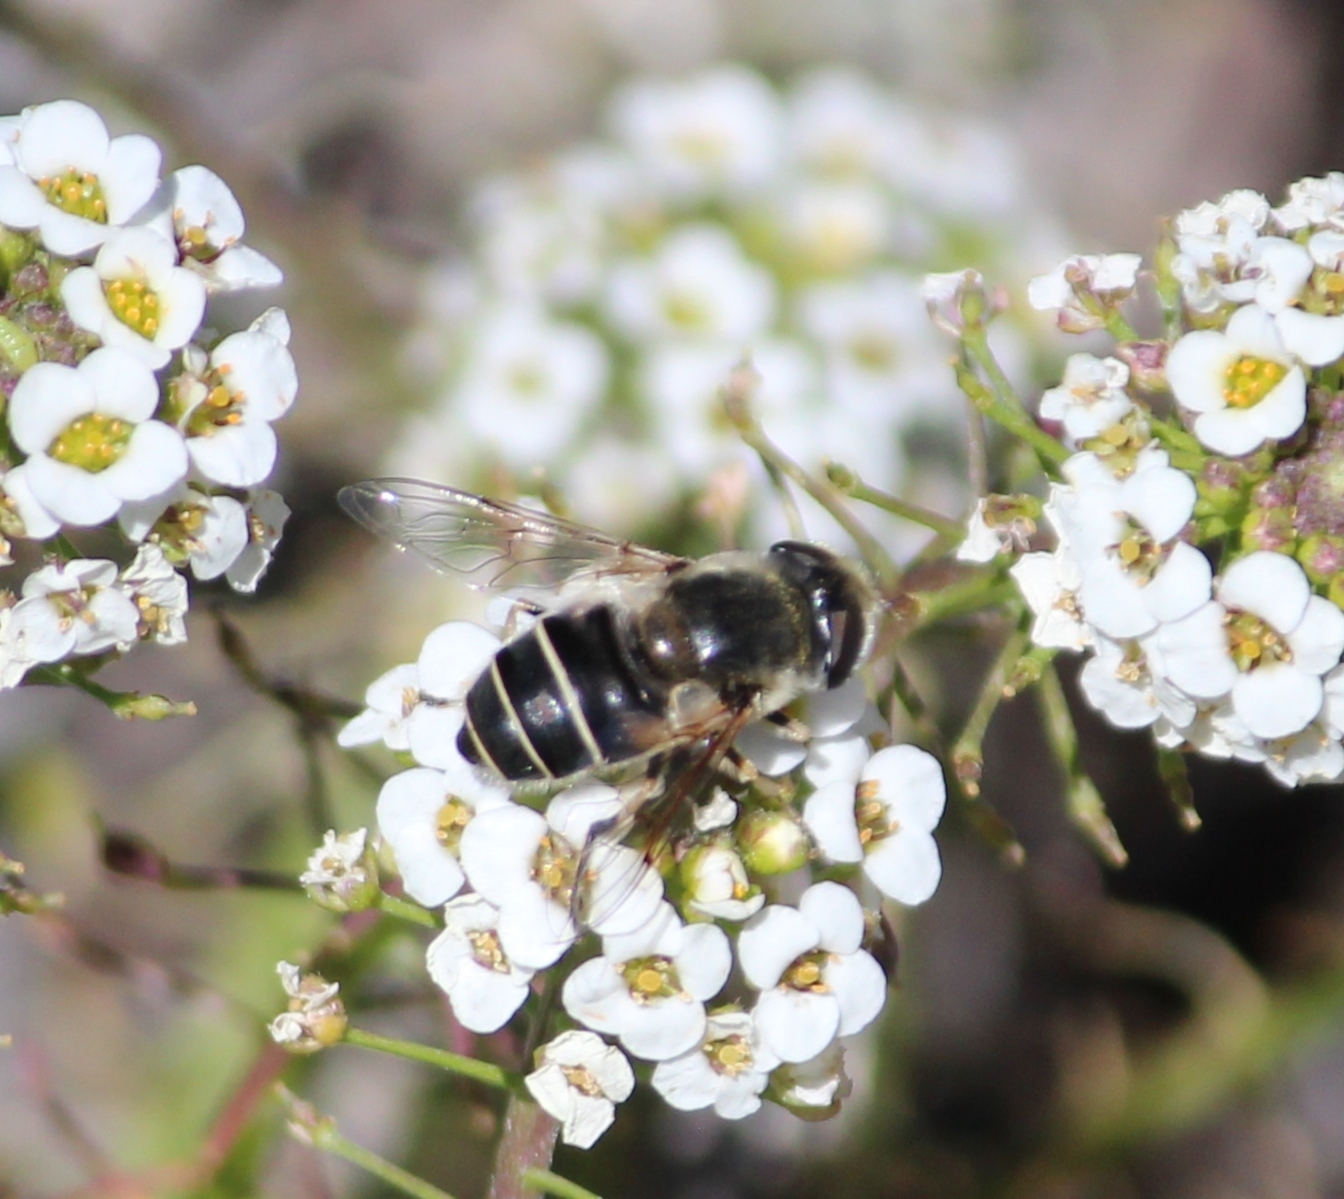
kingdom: Animalia
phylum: Arthropoda
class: Insecta
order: Diptera
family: Syrphidae
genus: Eristalis
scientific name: Eristalis hirta
